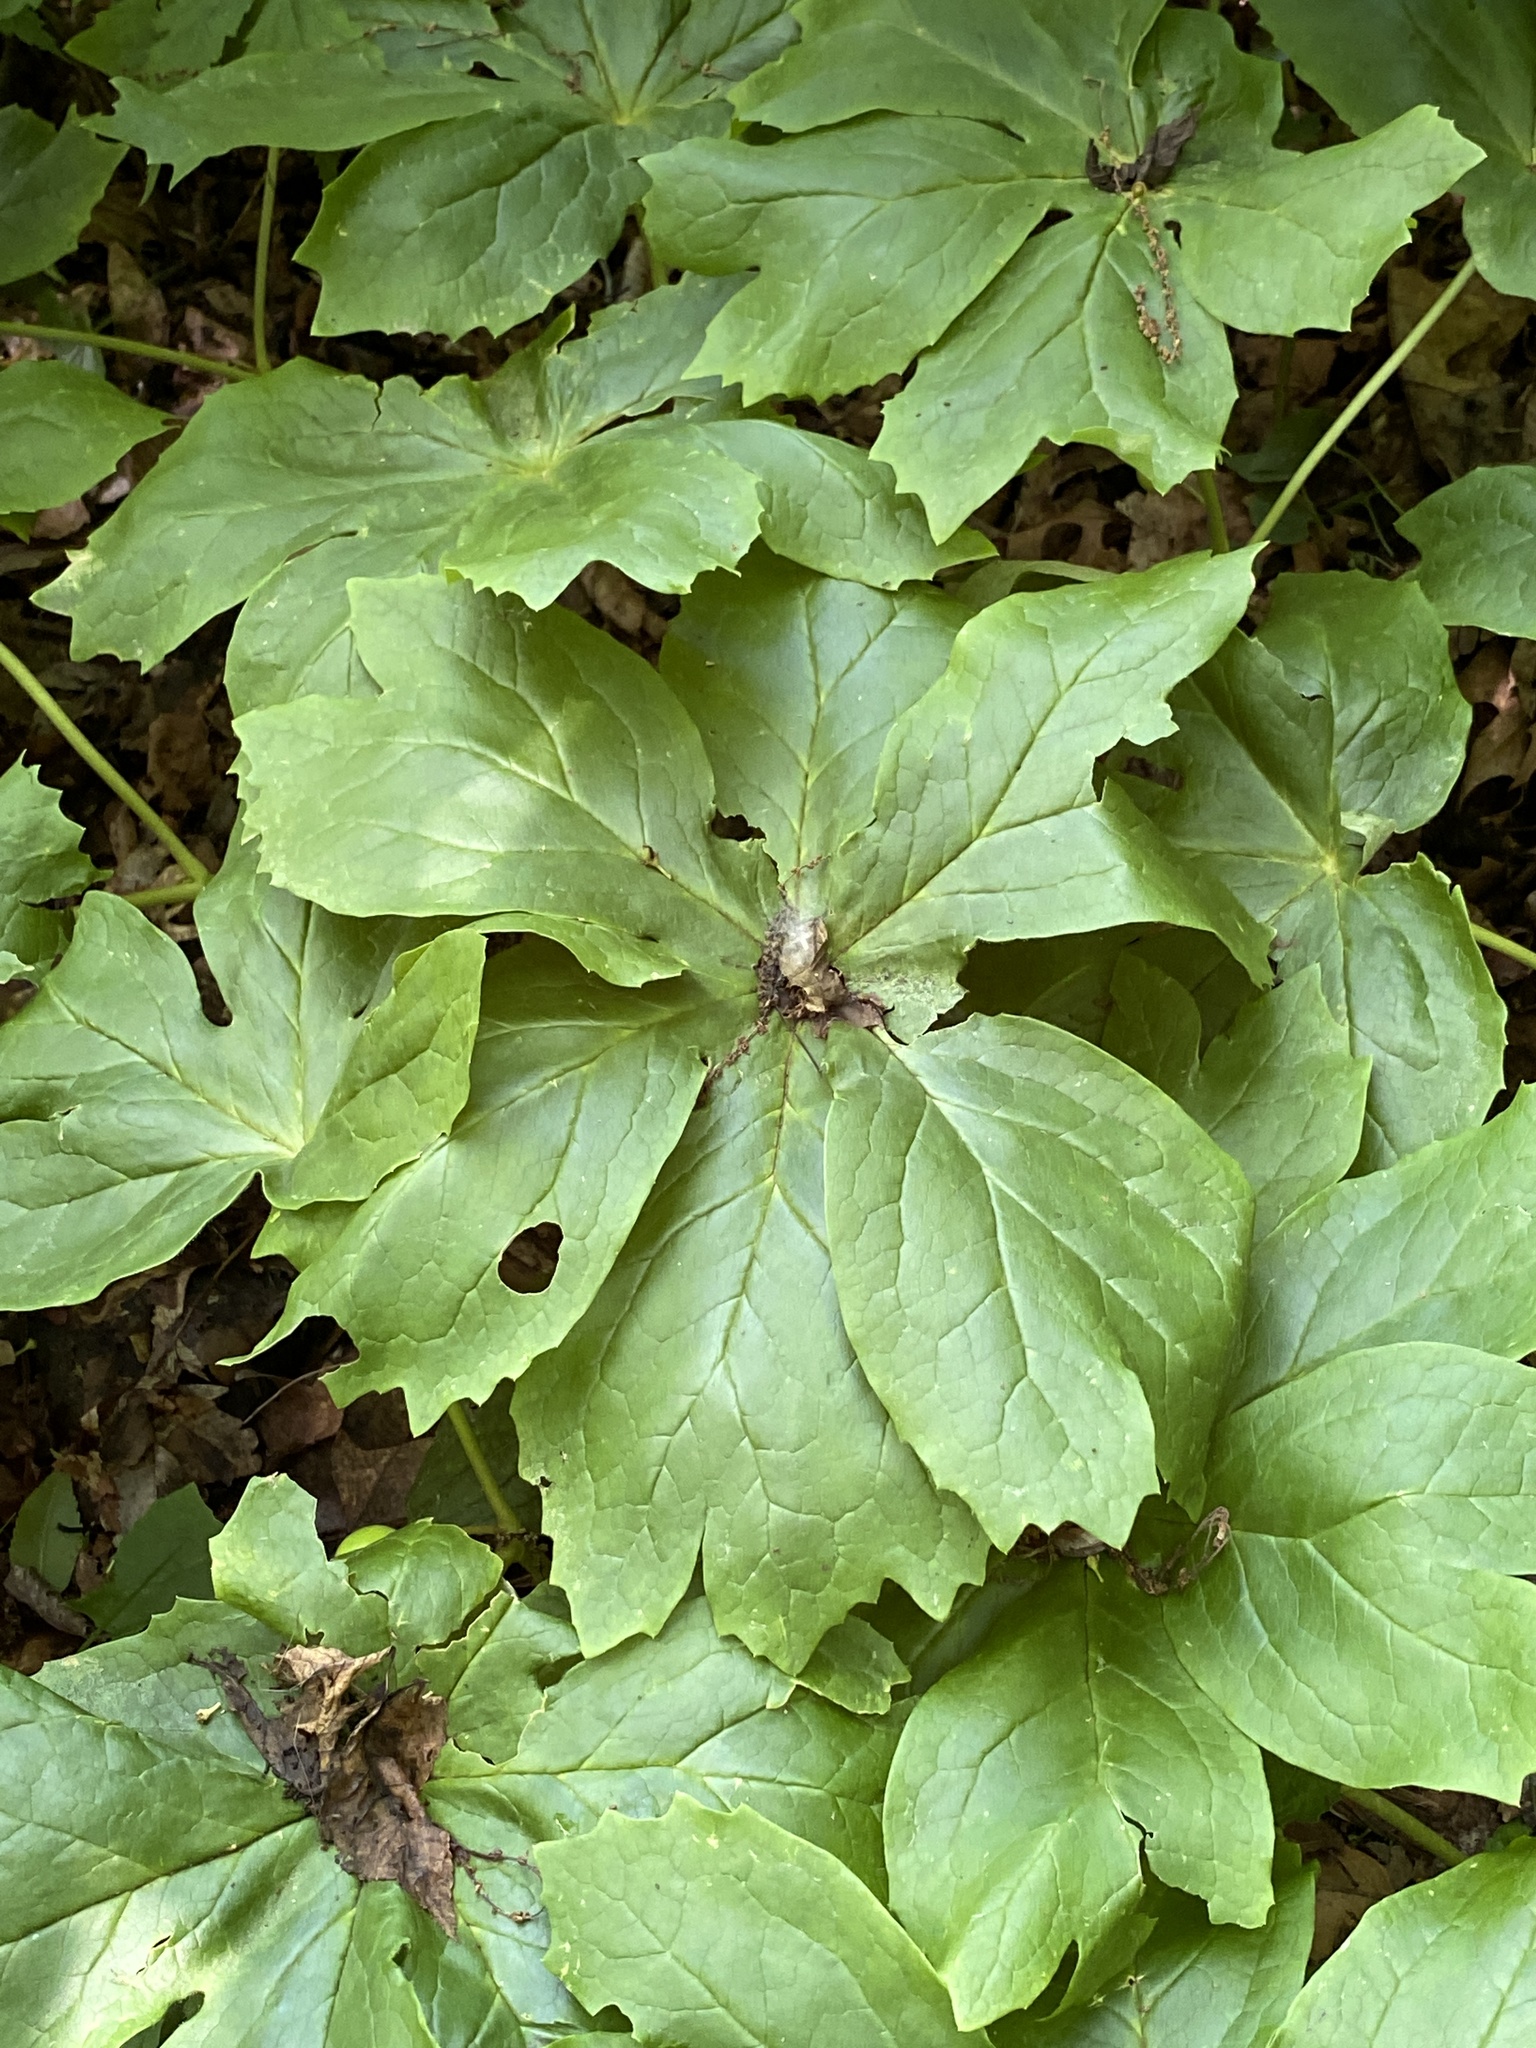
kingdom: Plantae
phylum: Tracheophyta
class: Magnoliopsida
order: Ranunculales
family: Berberidaceae
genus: Podophyllum
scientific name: Podophyllum peltatum
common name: Wild mandrake
